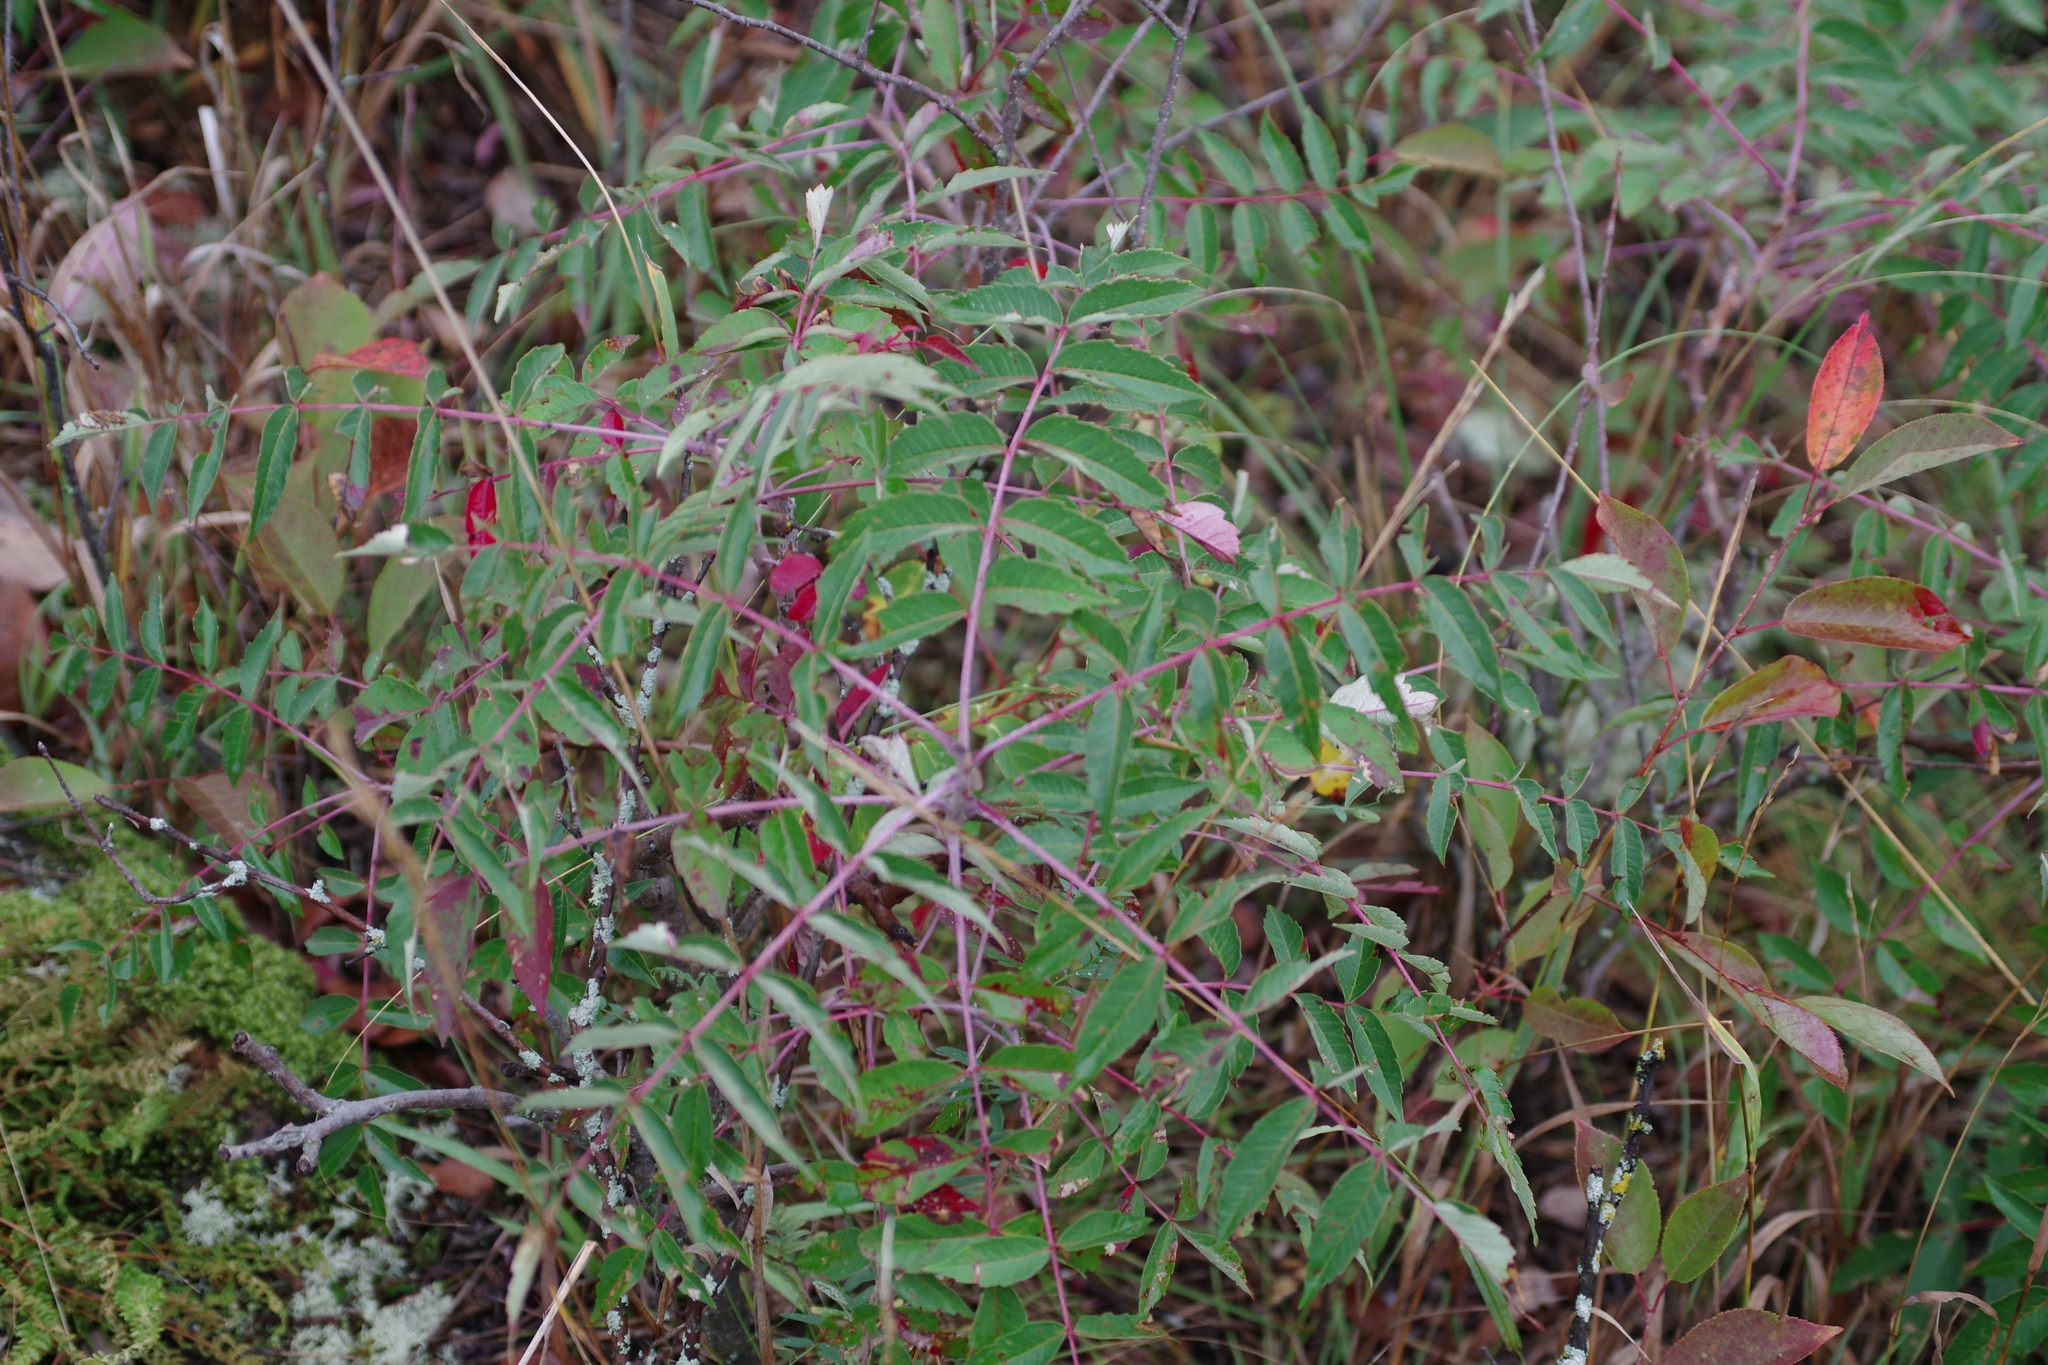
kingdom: Plantae
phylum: Tracheophyta
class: Magnoliopsida
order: Sapindales
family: Anacardiaceae
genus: Rhus
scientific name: Rhus glabra
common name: Scarlet sumac
